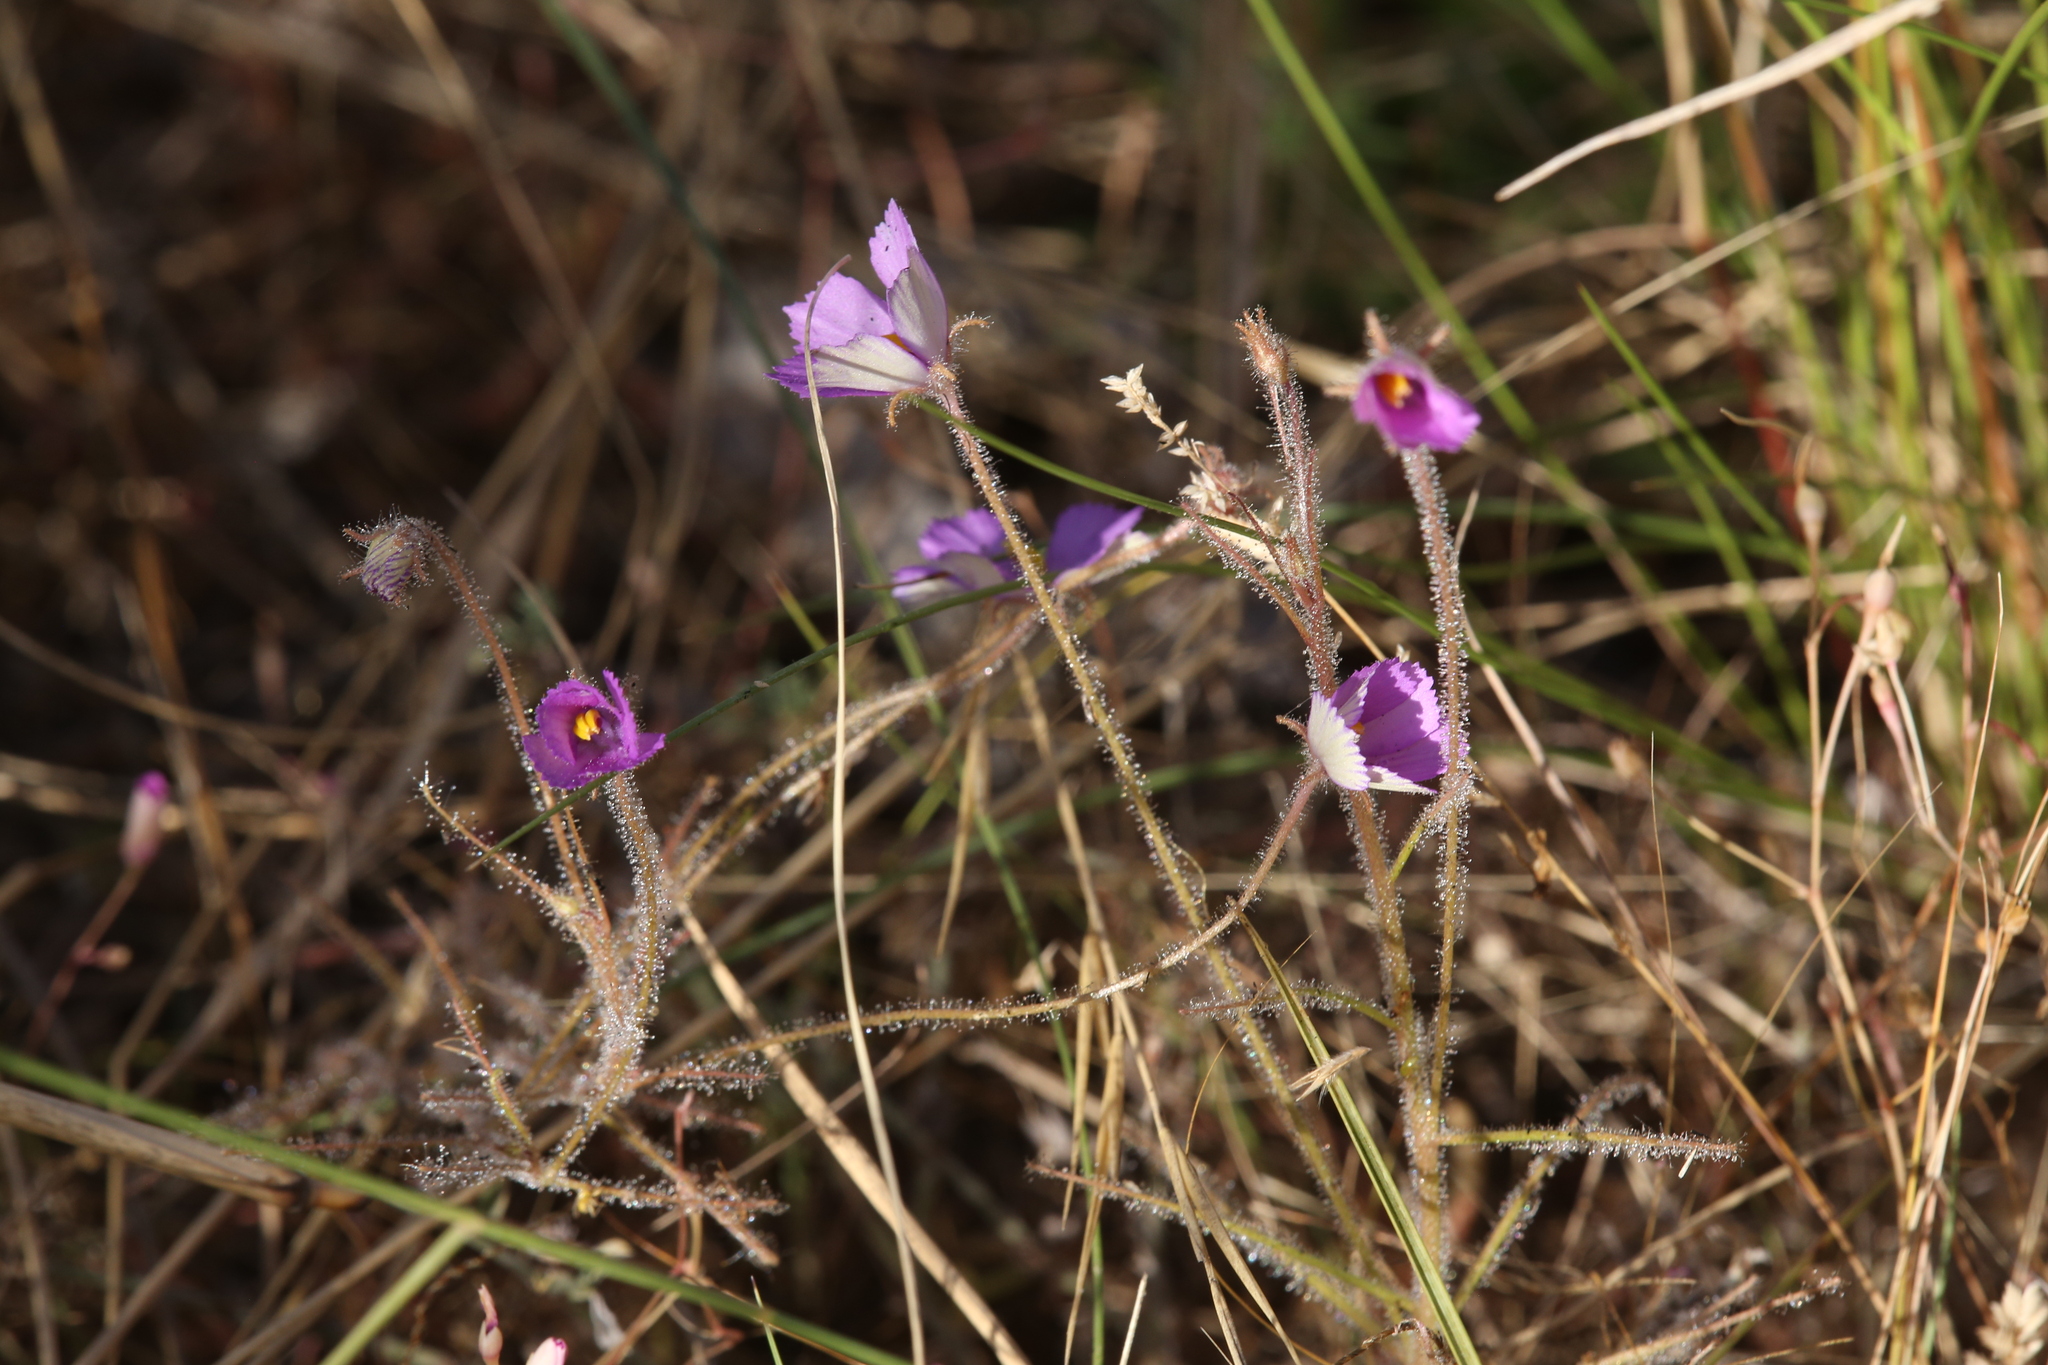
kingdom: Plantae
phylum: Tracheophyta
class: Magnoliopsida
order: Lamiales
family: Byblidaceae
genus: Byblis
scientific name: Byblis filifolia
